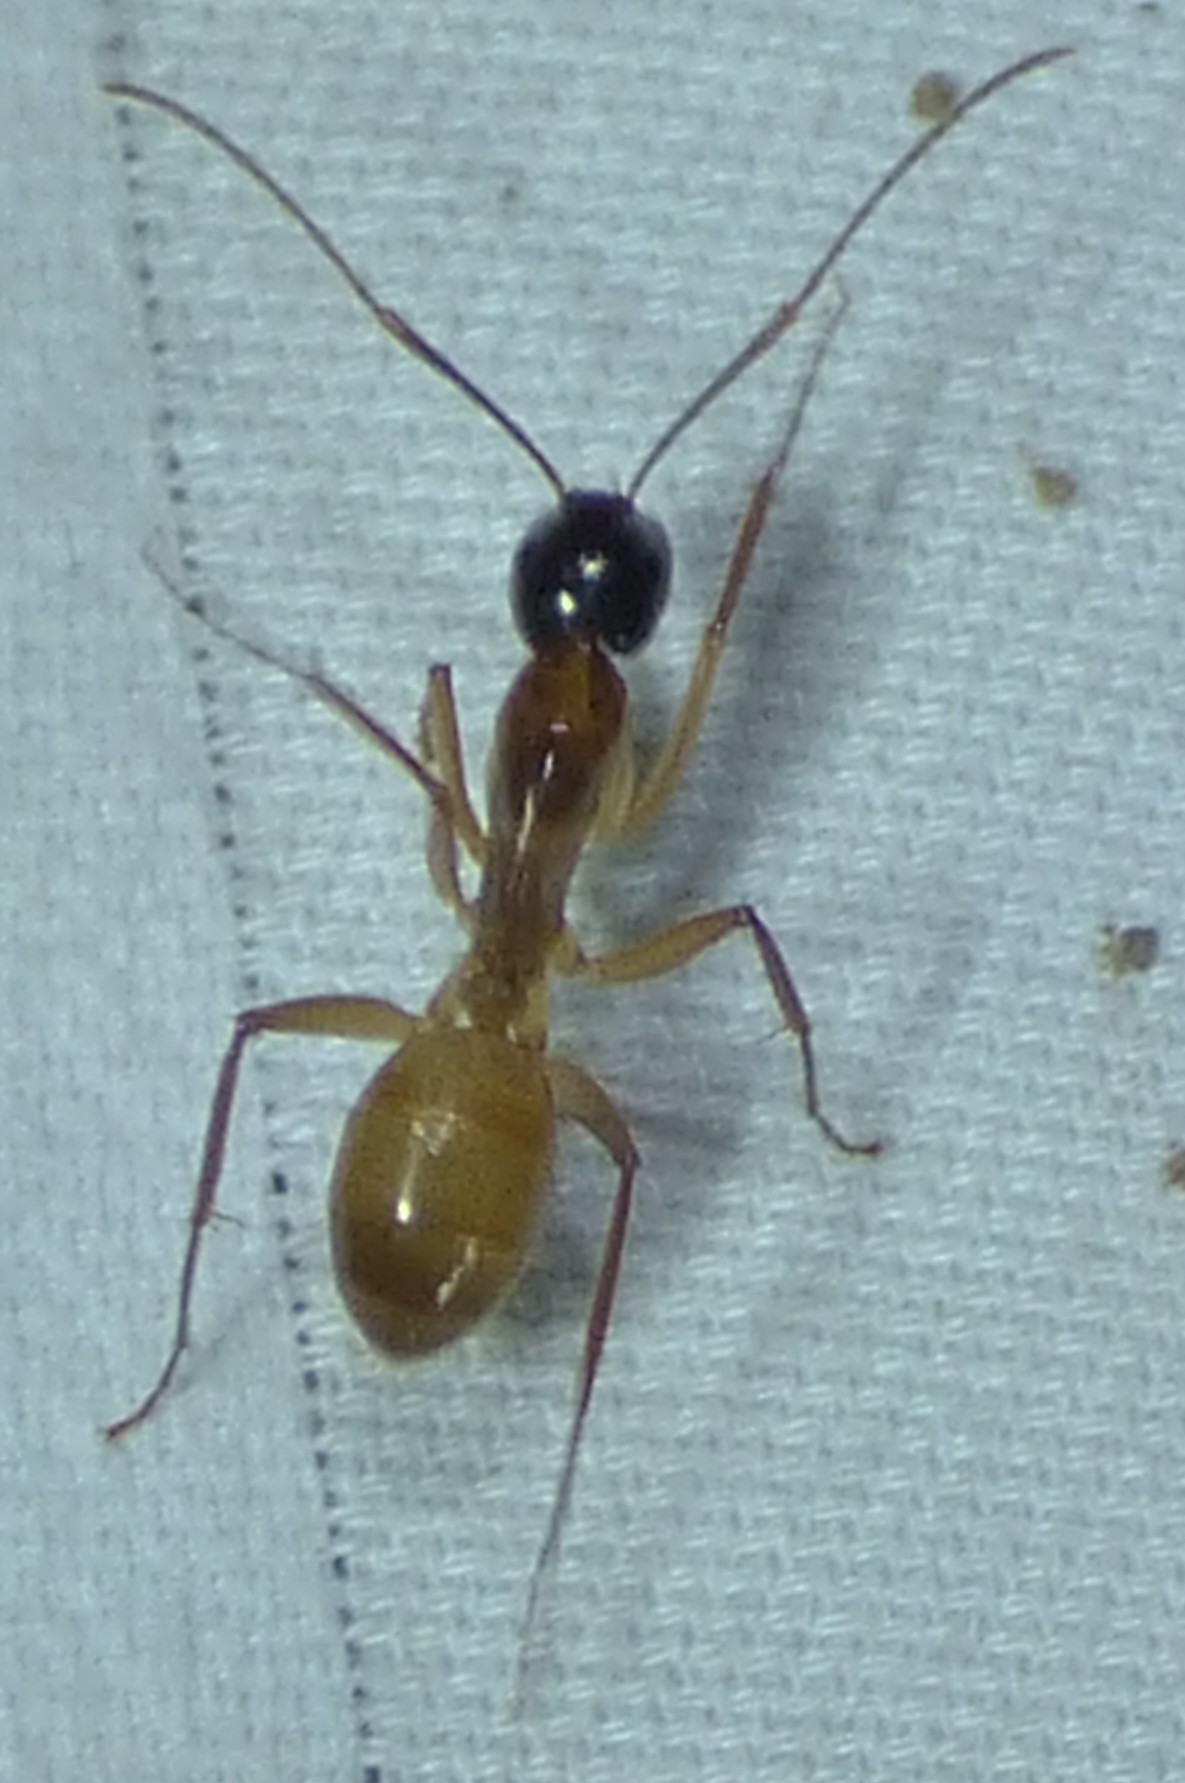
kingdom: Animalia
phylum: Arthropoda
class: Insecta
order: Hymenoptera
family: Formicidae
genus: Camponotus
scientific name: Camponotus americanus
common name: American carpenter ant
